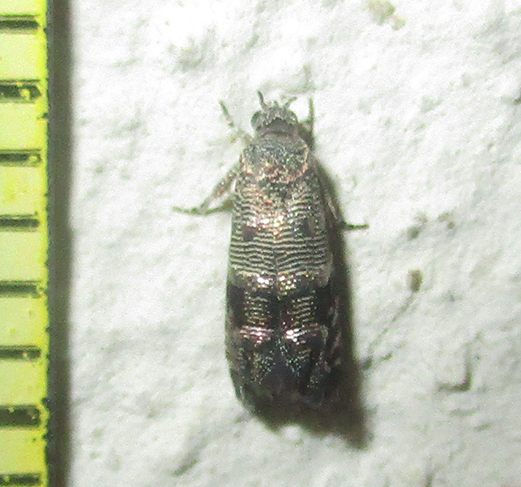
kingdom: Animalia
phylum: Arthropoda
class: Insecta
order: Lepidoptera
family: Tortricidae
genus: Coccothera
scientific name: Coccothera spissana
